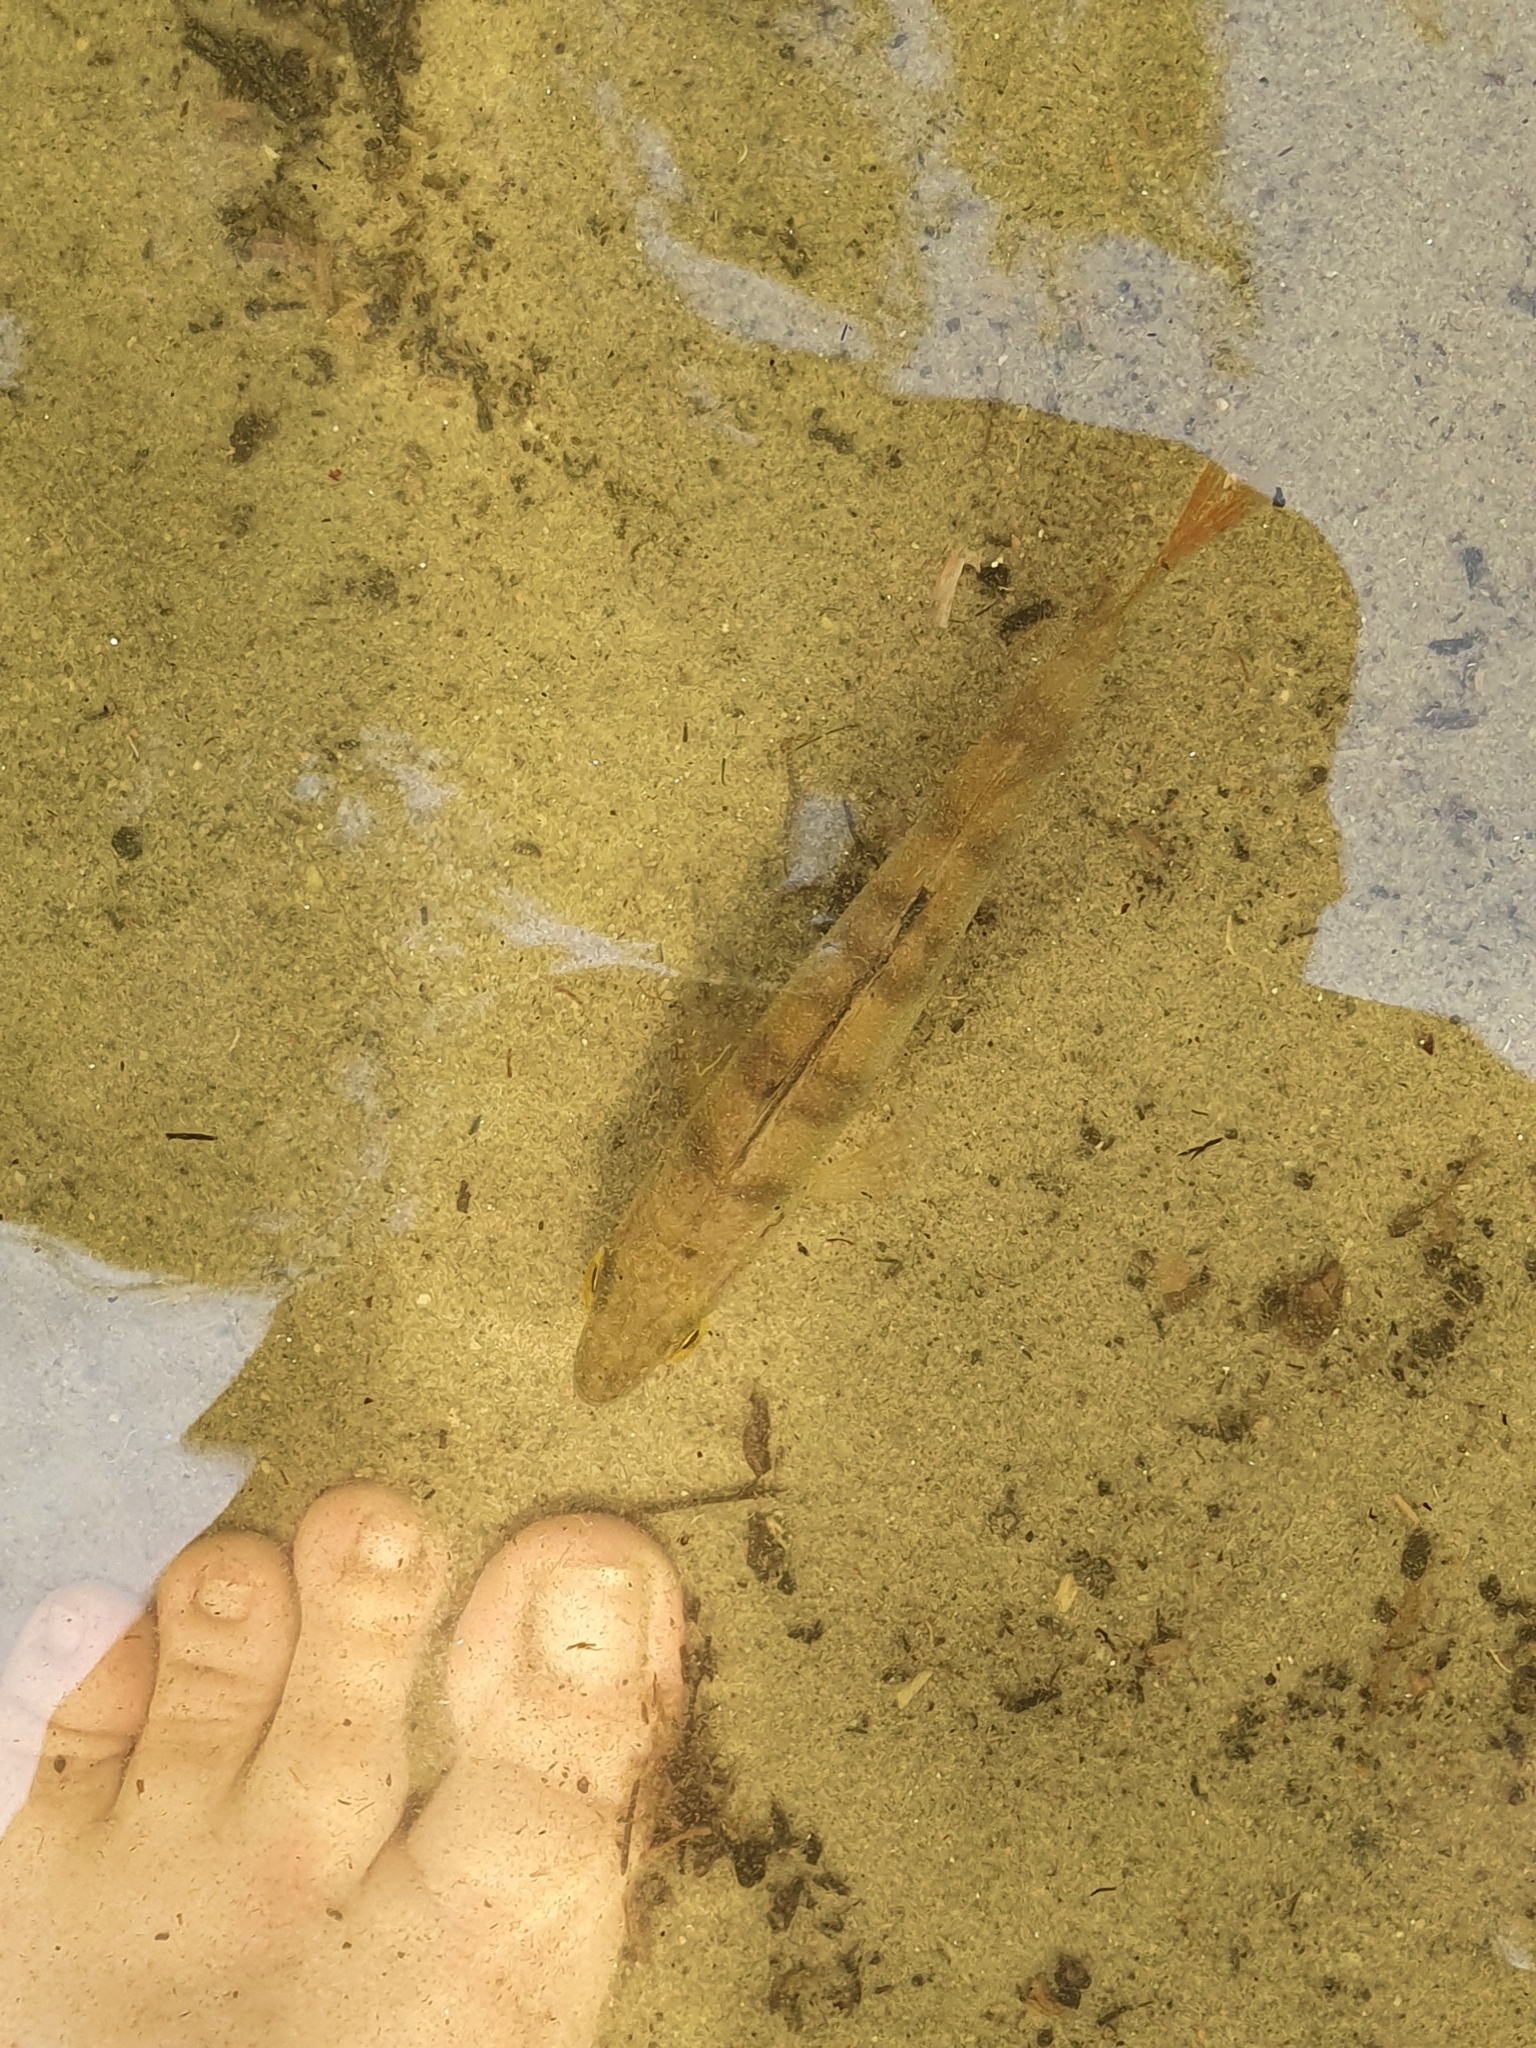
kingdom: Animalia
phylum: Chordata
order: Perciformes
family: Percidae
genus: Perca
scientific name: Perca fluviatilis
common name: Perch
